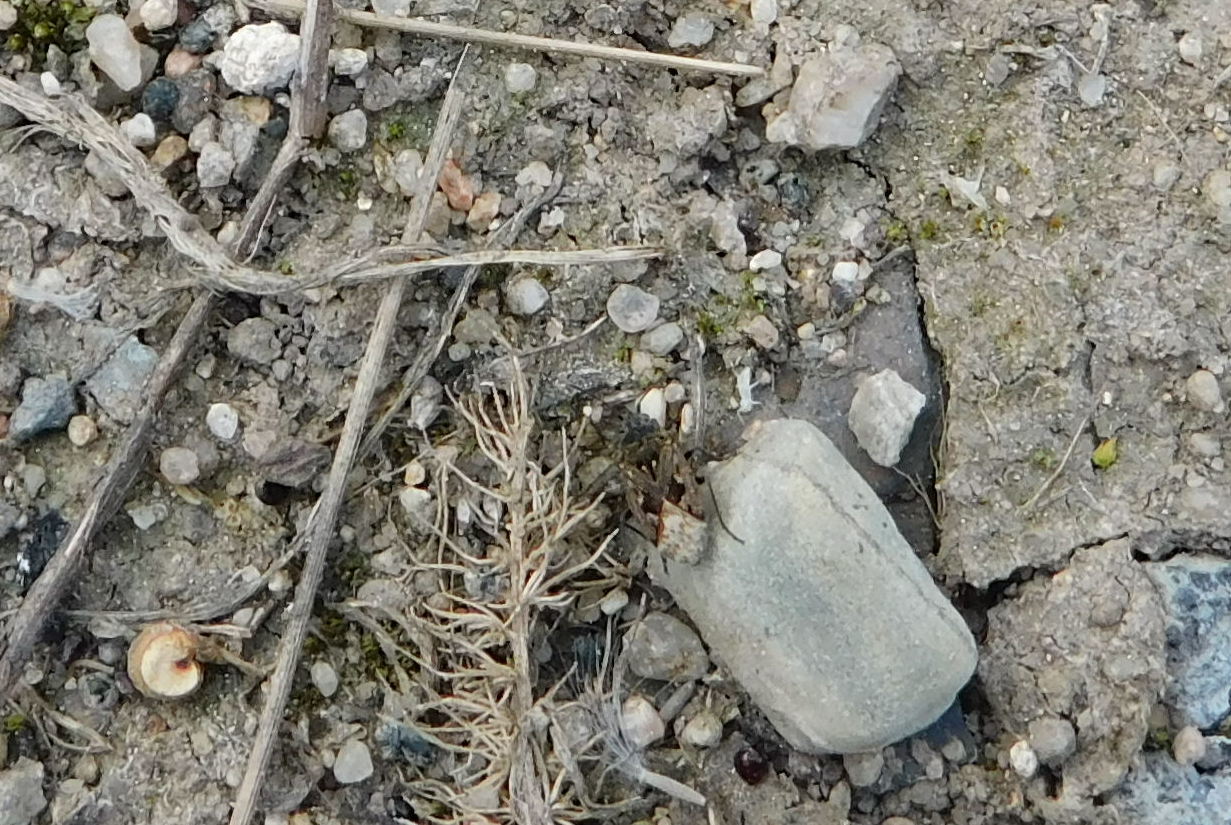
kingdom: Animalia
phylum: Arthropoda
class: Insecta
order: Hemiptera
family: Rhyparochromidae
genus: Sphragisticus
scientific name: Sphragisticus nebulosus
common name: Dirt-colored seed bug
